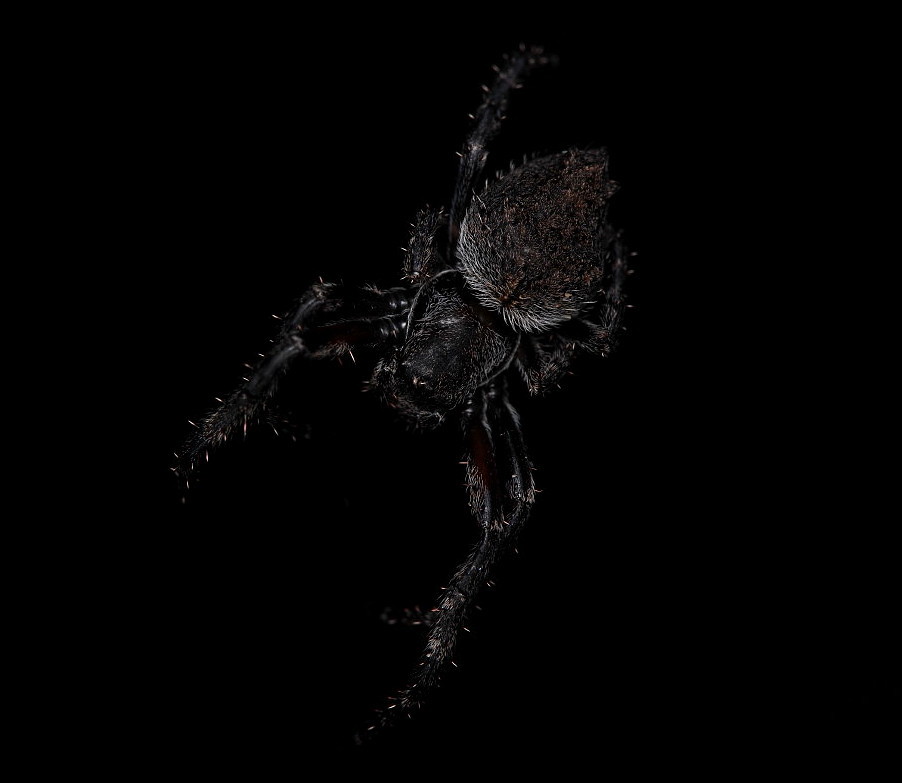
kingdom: Animalia
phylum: Arthropoda
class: Arachnida
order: Araneae
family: Araneidae
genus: Eriophora
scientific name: Eriophora pustulosa
